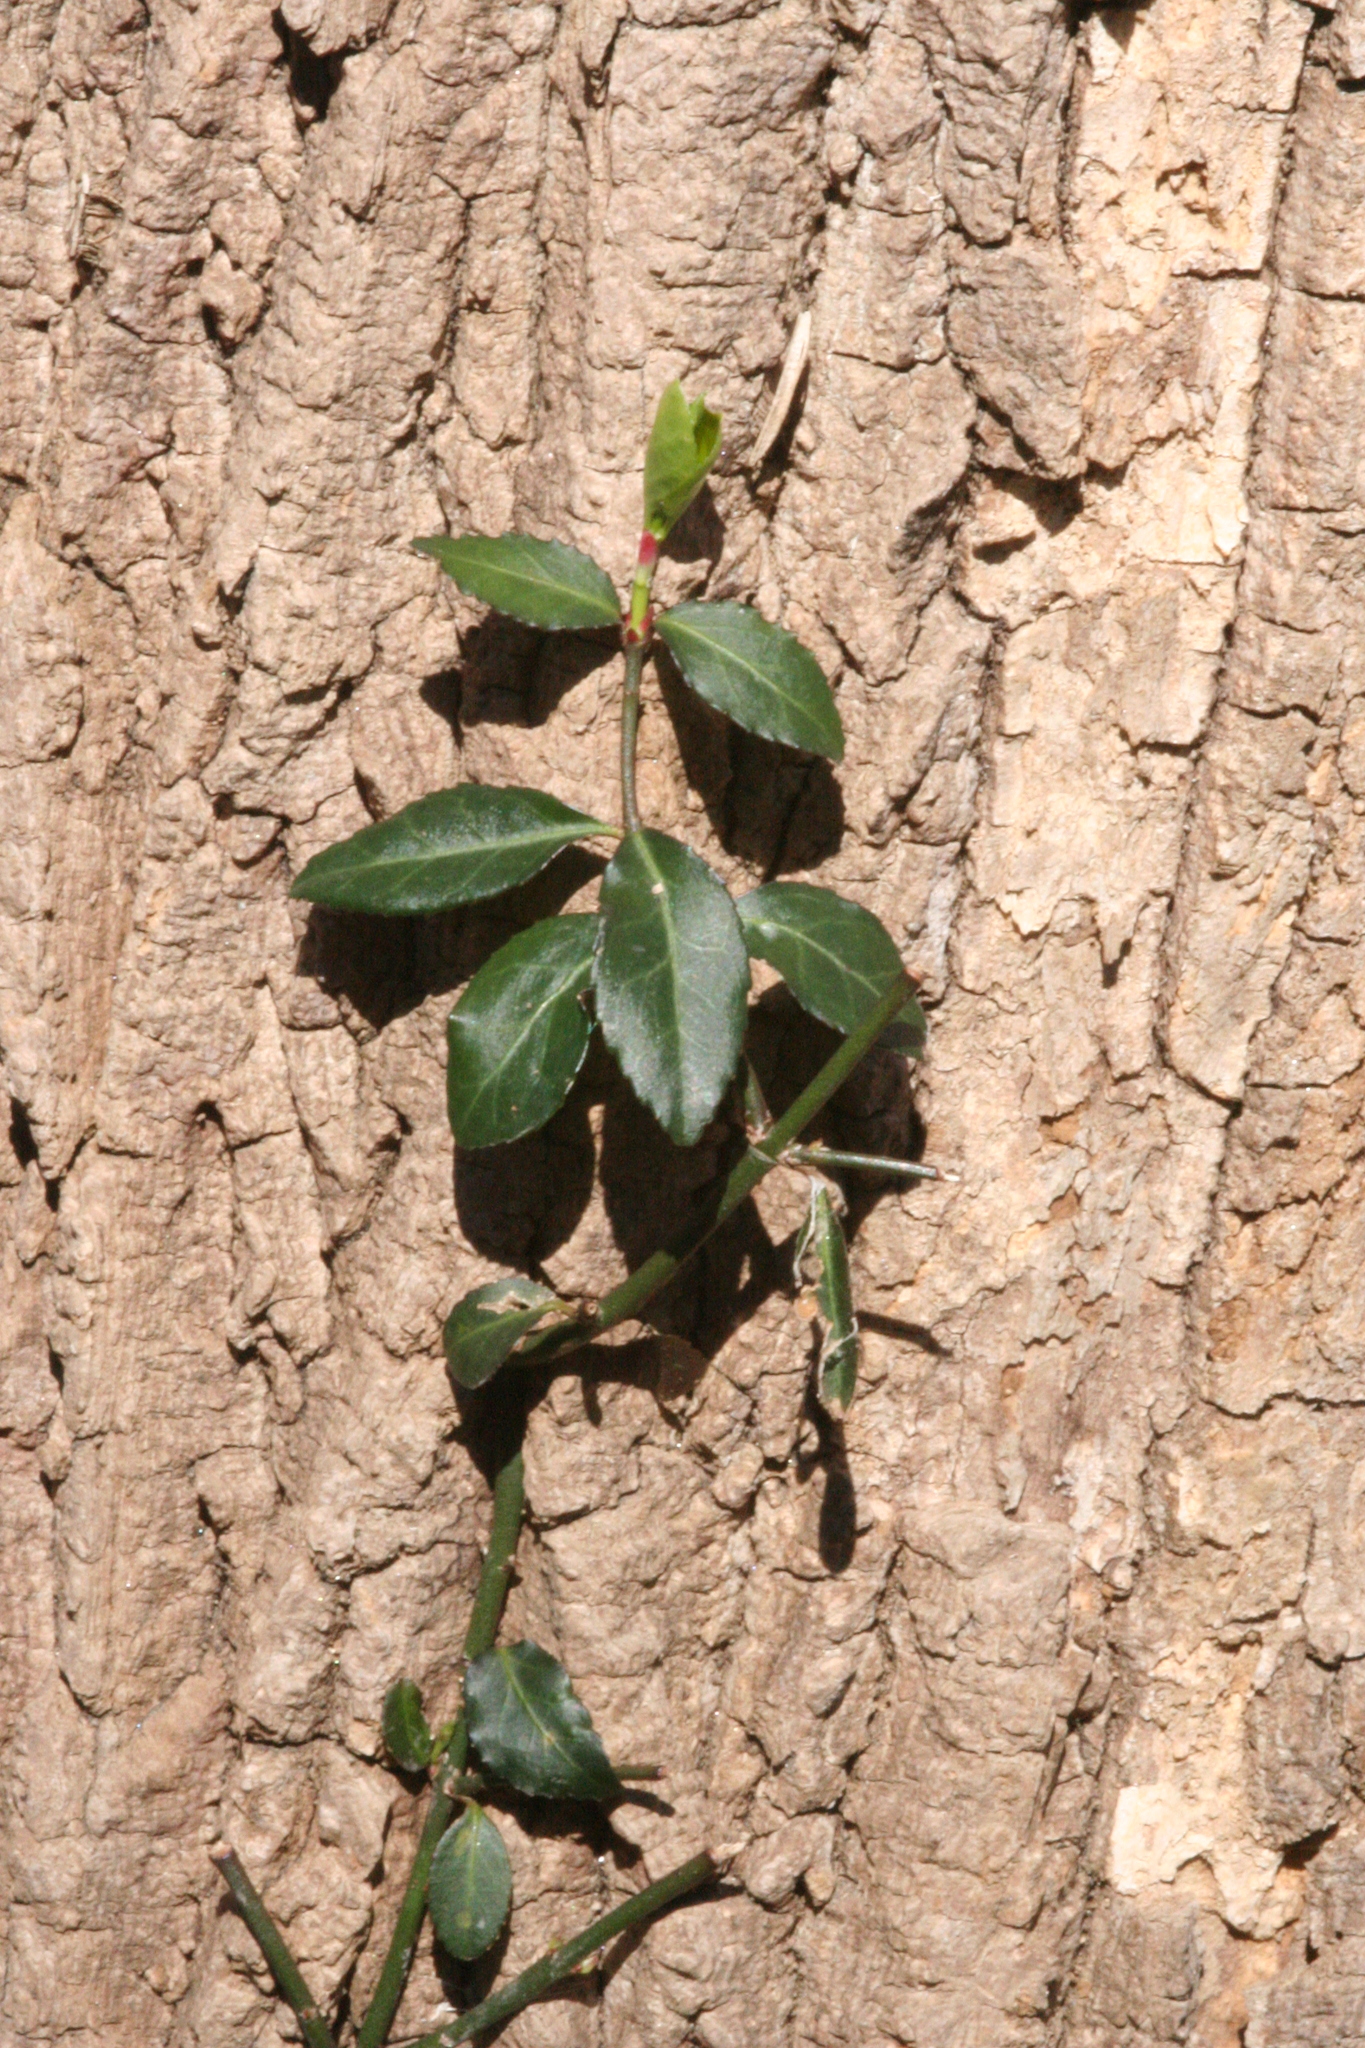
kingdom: Plantae
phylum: Tracheophyta
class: Magnoliopsida
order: Celastrales
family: Celastraceae
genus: Euonymus
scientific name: Euonymus fortunei
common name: Climbing euonymus
